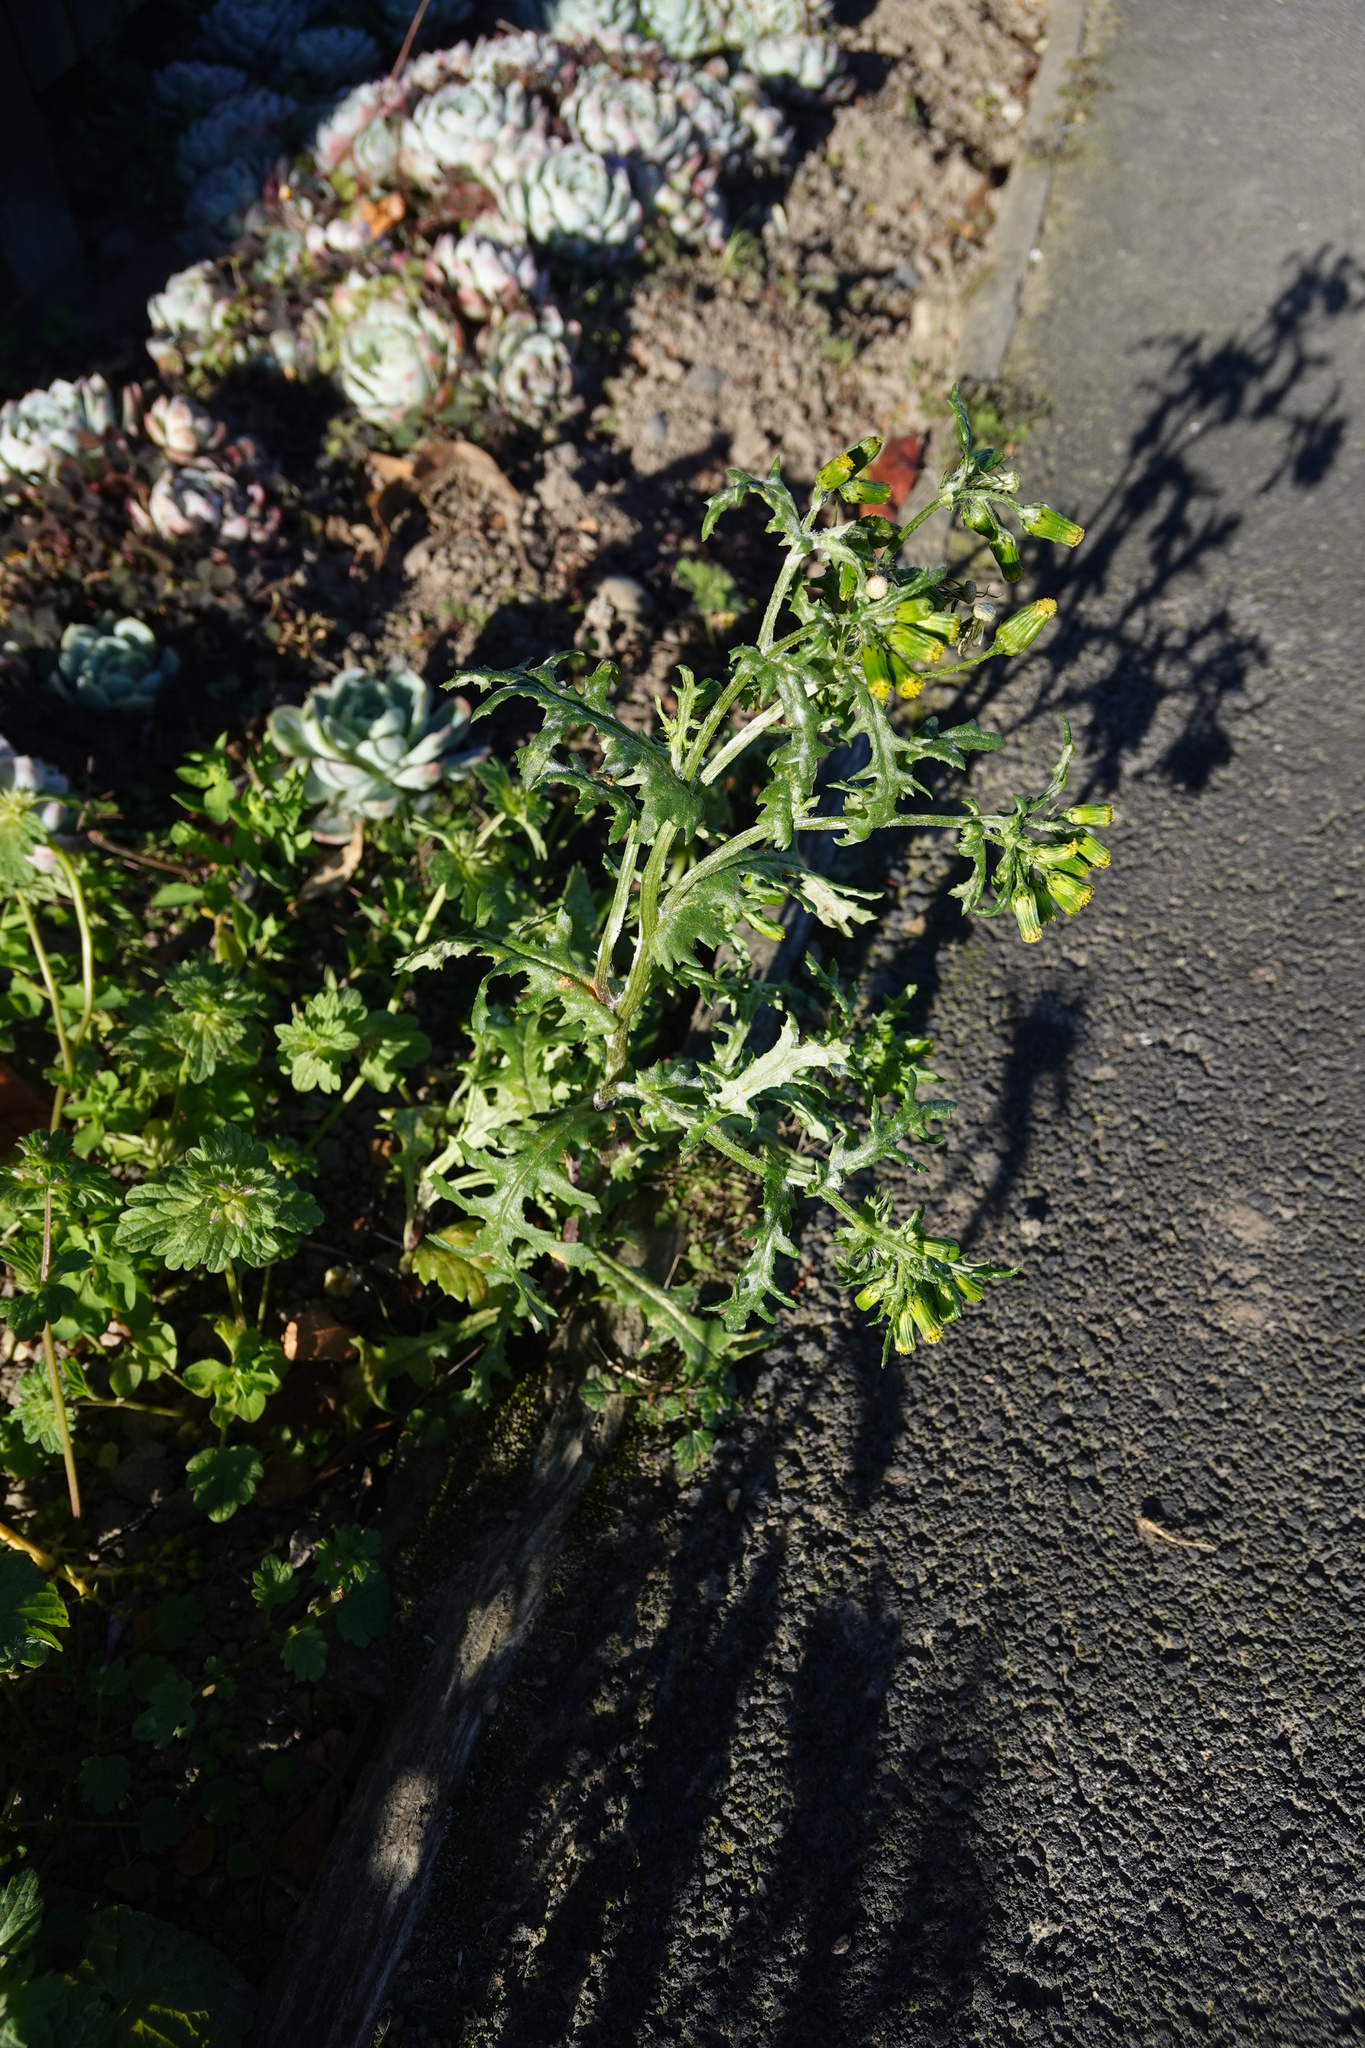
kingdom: Plantae
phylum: Tracheophyta
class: Magnoliopsida
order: Asterales
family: Asteraceae
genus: Senecio
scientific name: Senecio vulgaris
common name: Old-man-in-the-spring
